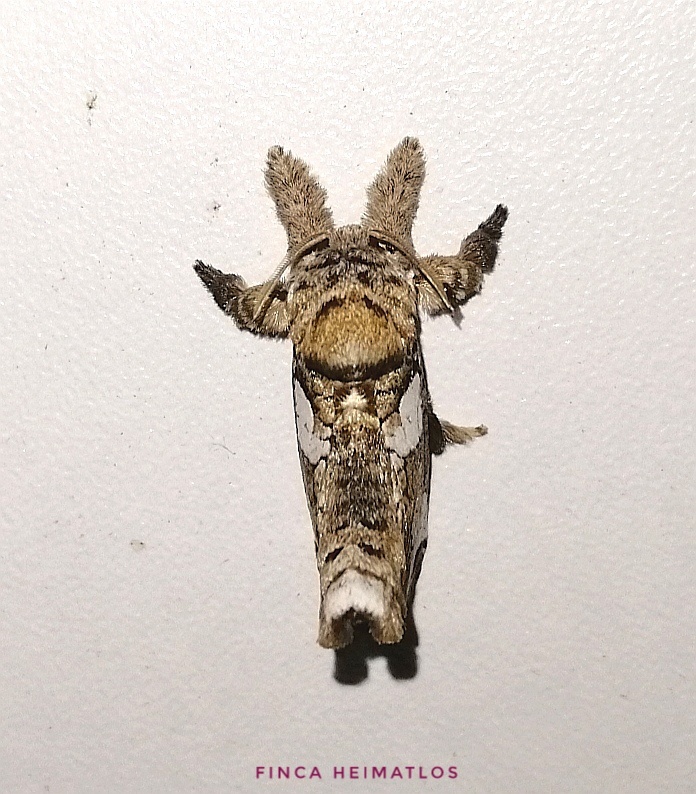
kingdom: Animalia
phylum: Arthropoda
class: Insecta
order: Lepidoptera
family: Cossidae
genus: Langsdorfia
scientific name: Langsdorfia polybia
